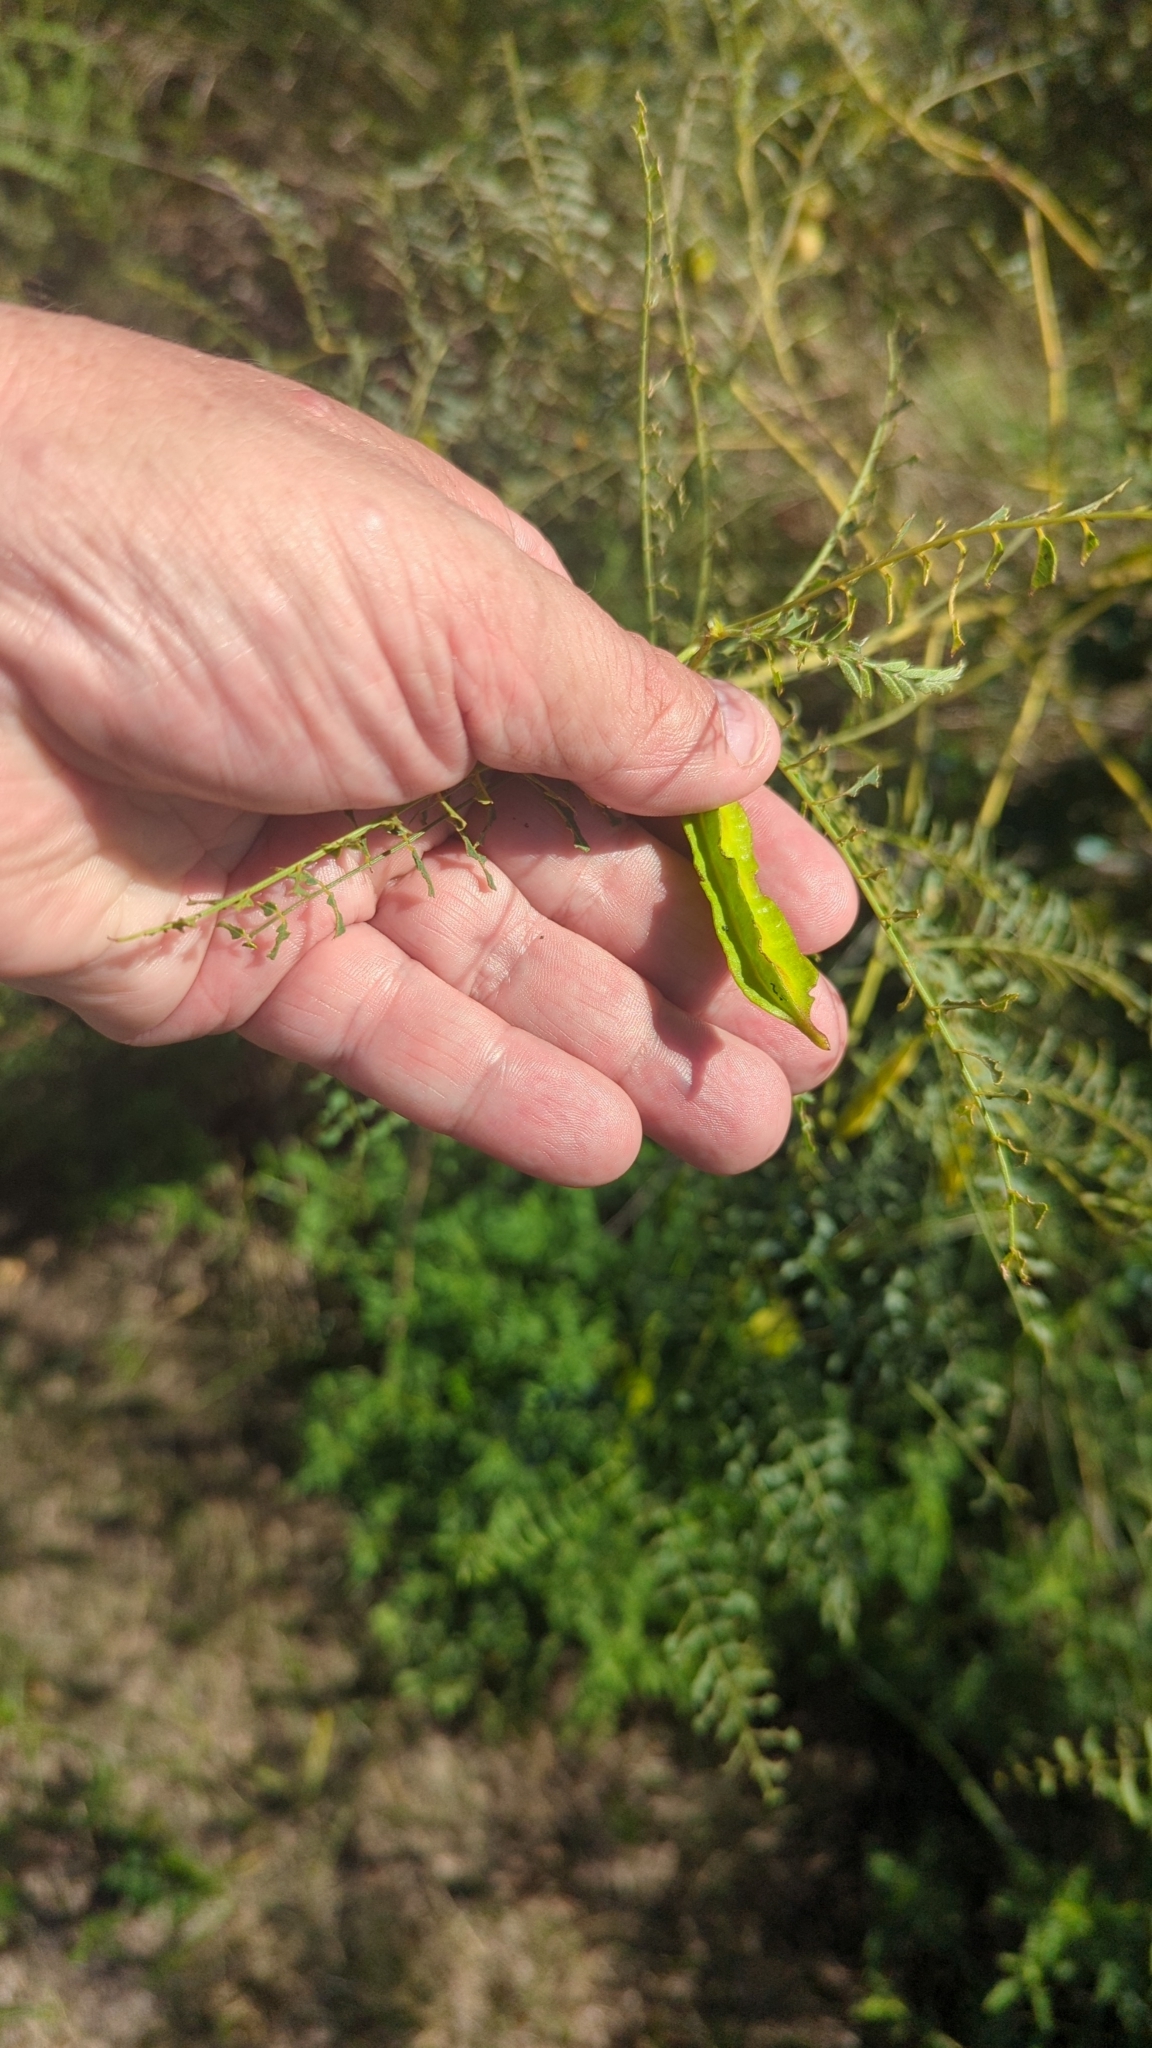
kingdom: Plantae
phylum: Tracheophyta
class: Magnoliopsida
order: Fabales
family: Fabaceae
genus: Sesbania
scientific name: Sesbania drummondii
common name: Poison-bean
